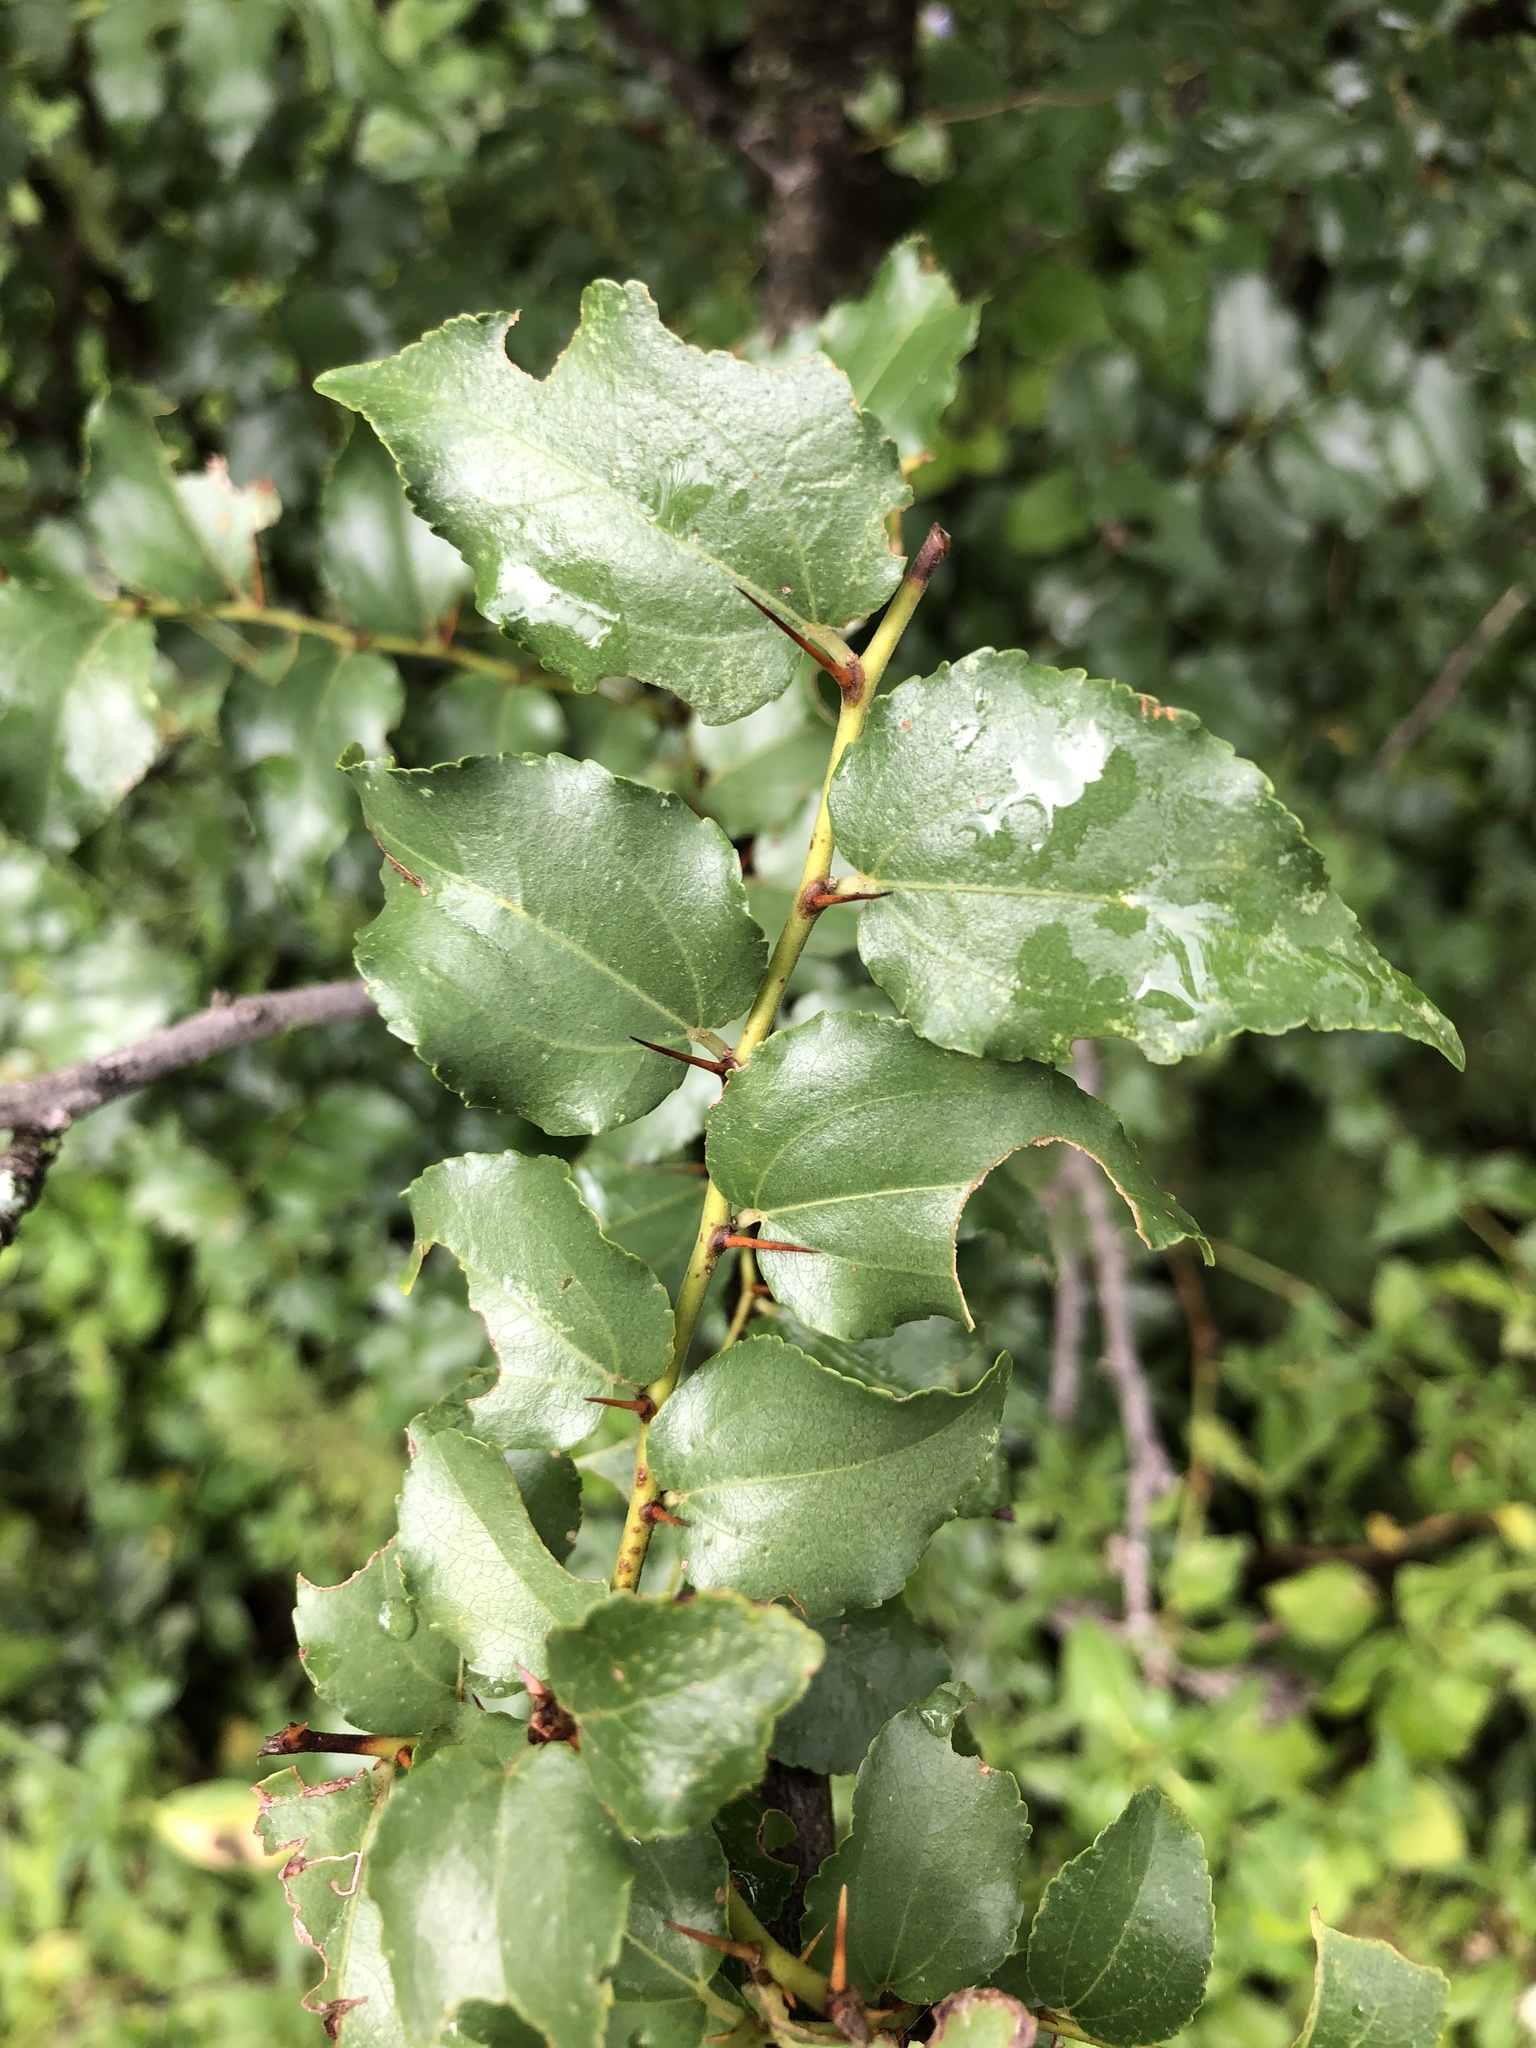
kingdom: Plantae
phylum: Tracheophyta
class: Magnoliopsida
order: Rosales
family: Rhamnaceae
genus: Ziziphus
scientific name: Ziziphus mucronata
